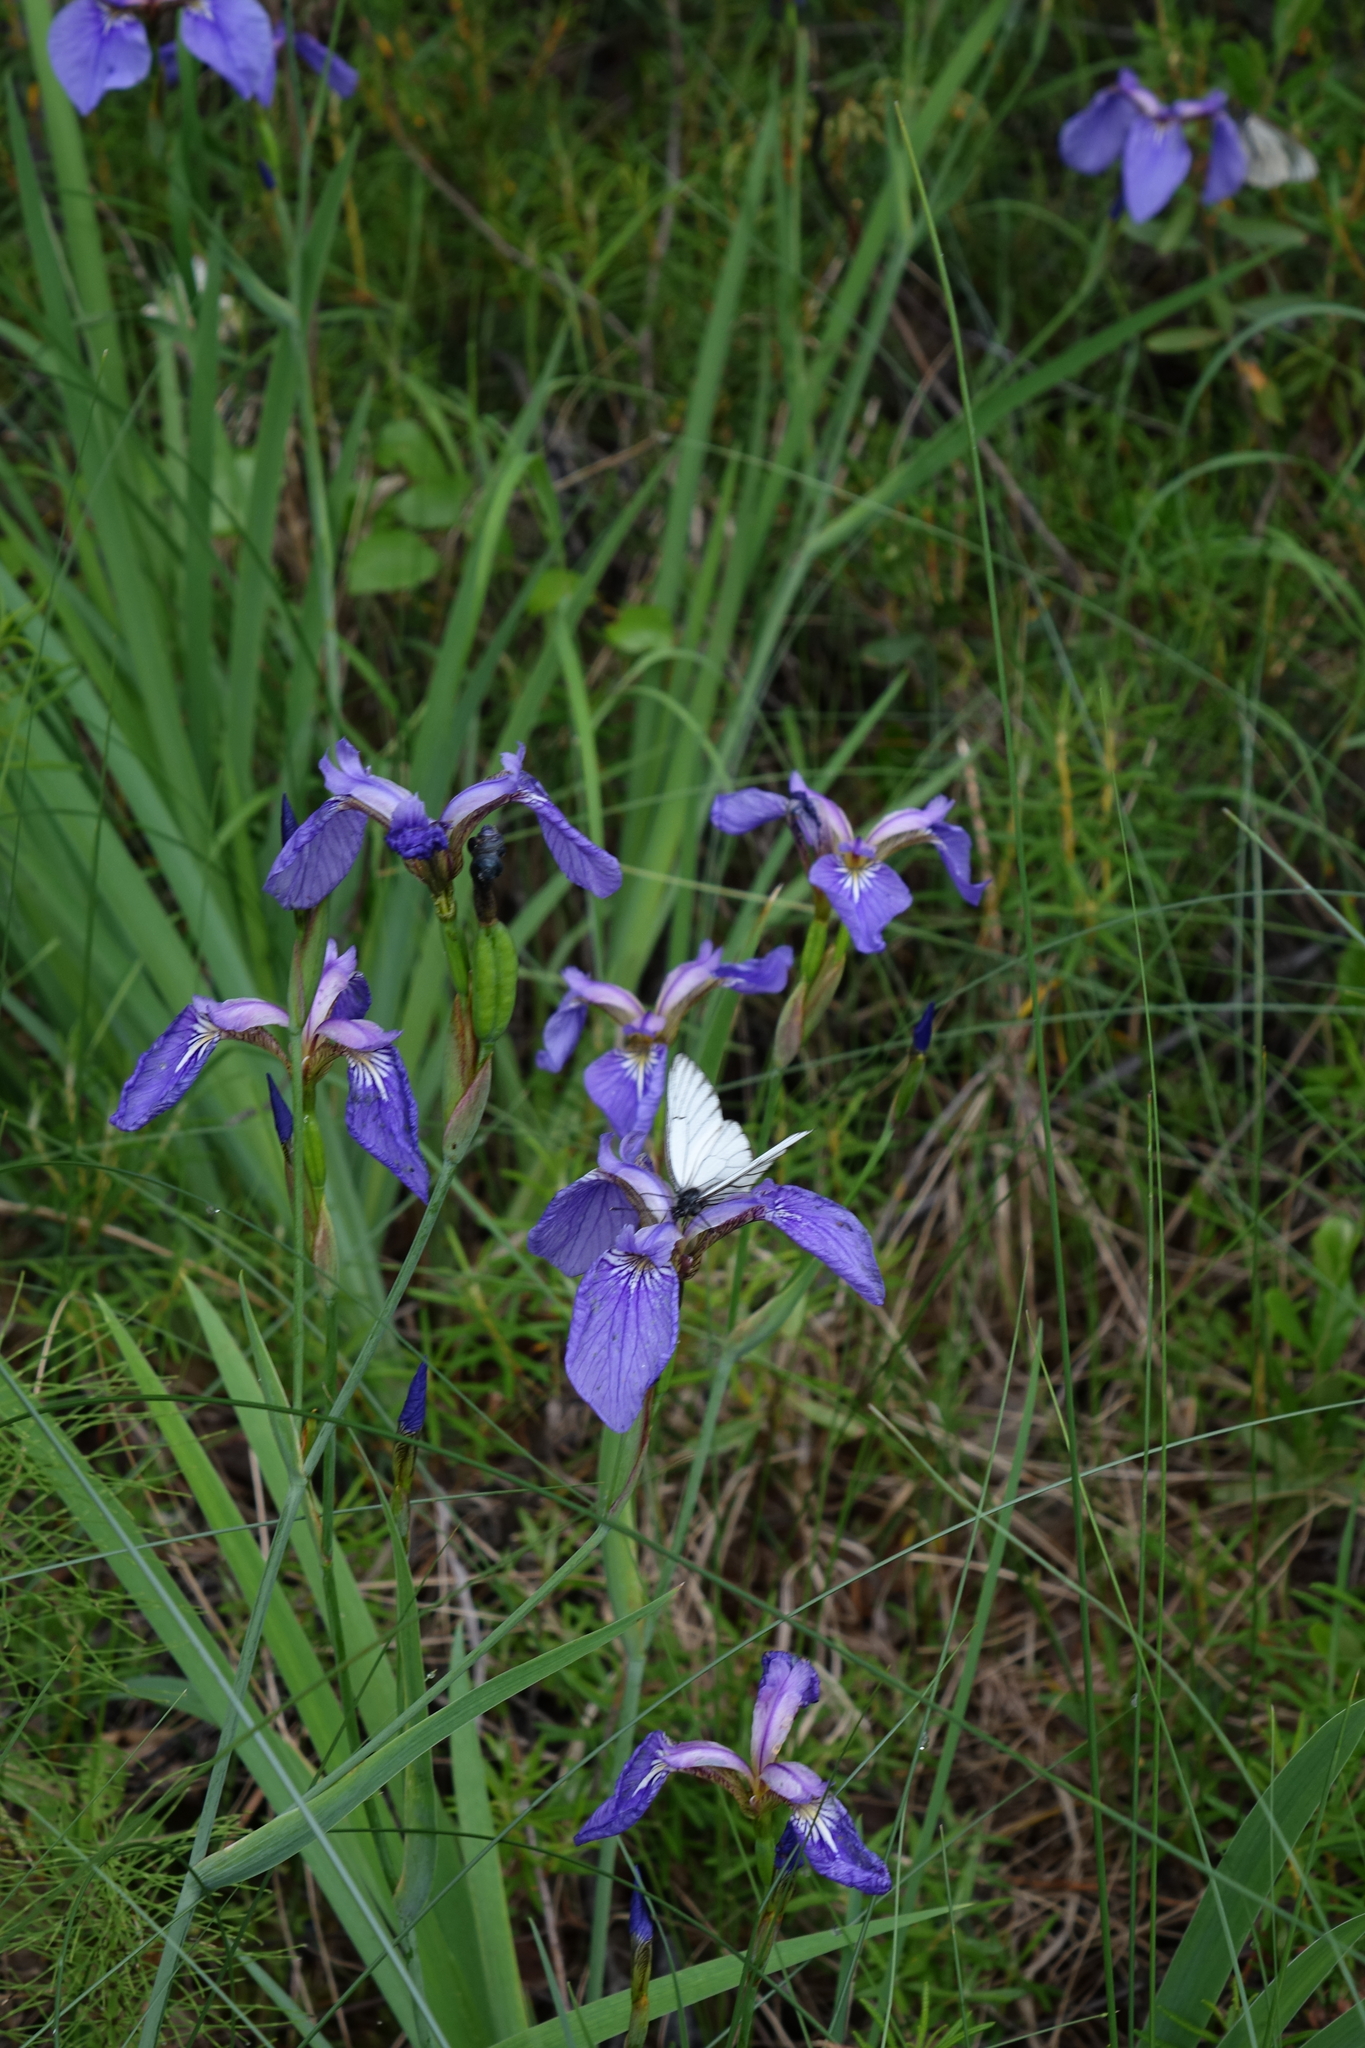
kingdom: Plantae
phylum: Tracheophyta
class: Liliopsida
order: Asparagales
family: Iridaceae
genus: Iris
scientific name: Iris setosa
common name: Arctic blue flag
